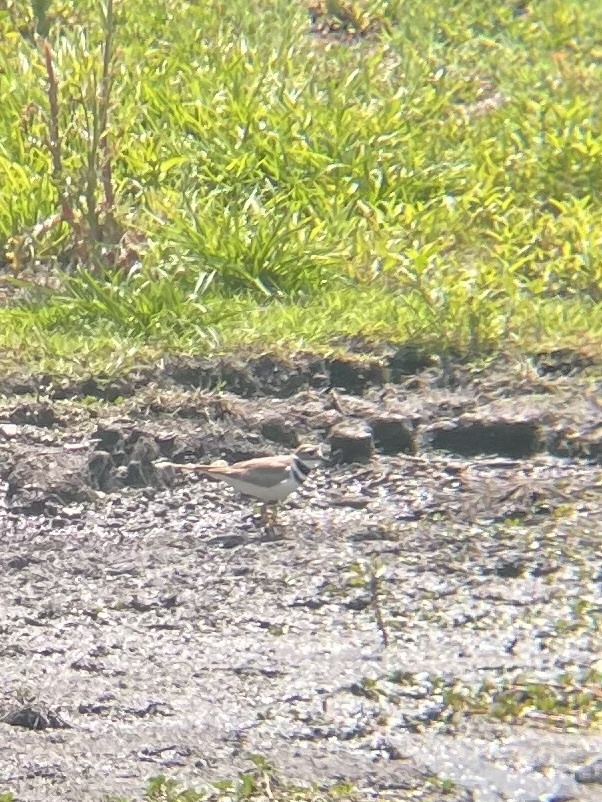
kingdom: Animalia
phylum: Chordata
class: Aves
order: Charadriiformes
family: Charadriidae
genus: Charadrius
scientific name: Charadrius vociferus
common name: Killdeer
